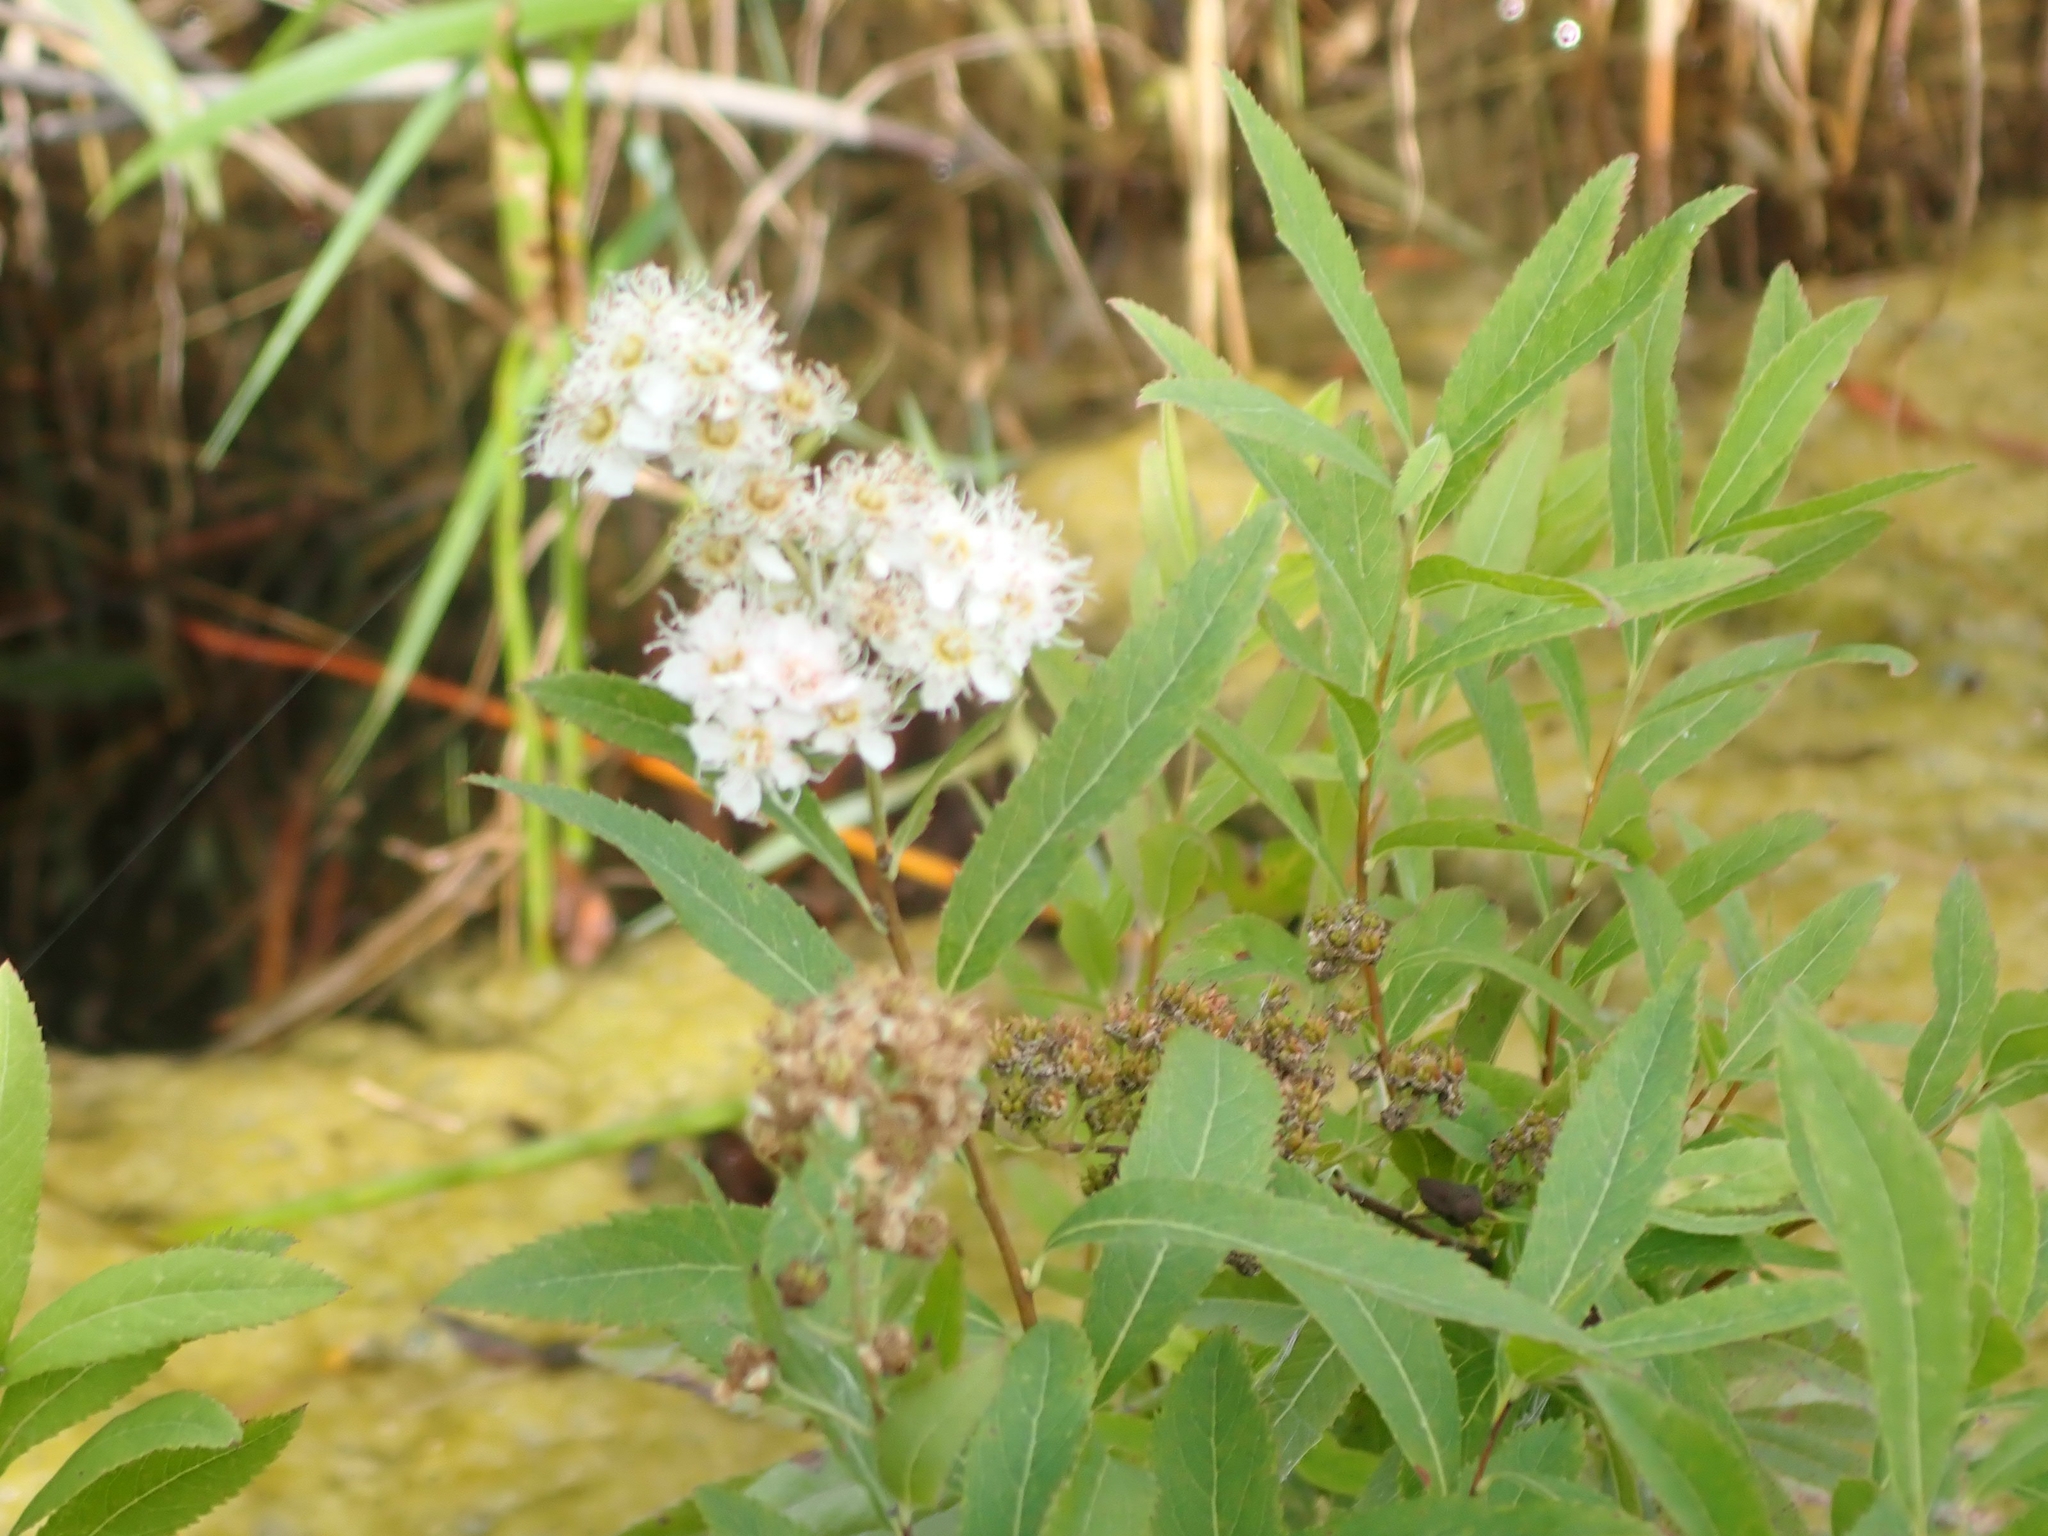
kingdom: Plantae
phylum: Tracheophyta
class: Magnoliopsida
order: Rosales
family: Rosaceae
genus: Spiraea
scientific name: Spiraea alba
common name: Pale bridewort
